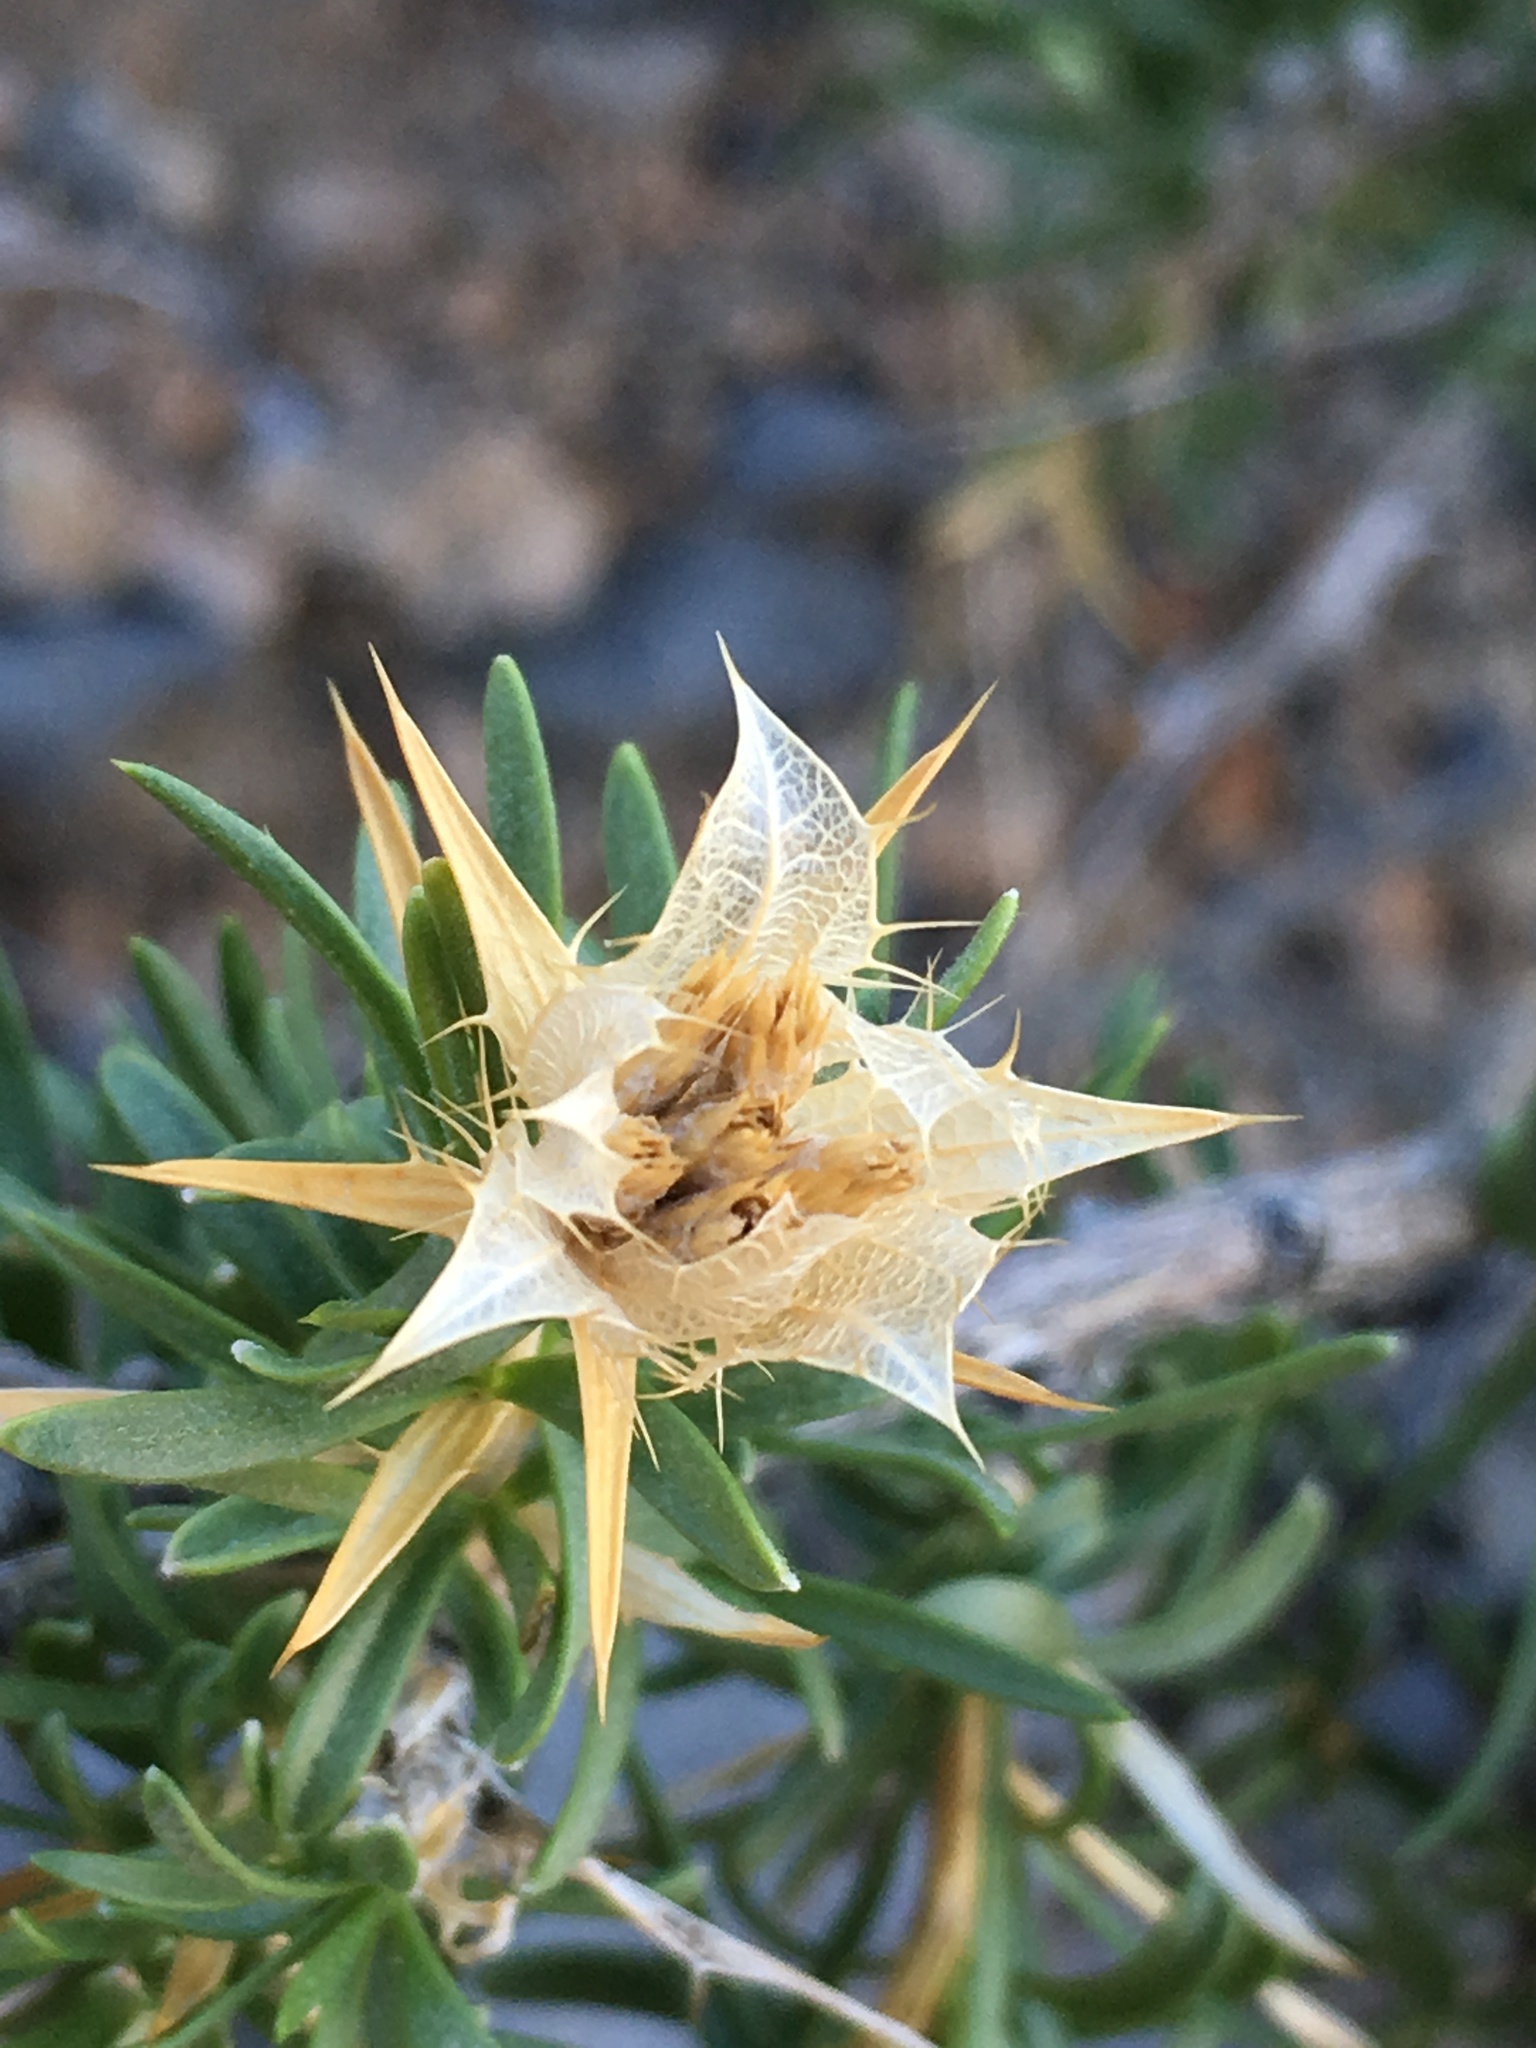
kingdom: Plantae
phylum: Tracheophyta
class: Magnoliopsida
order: Asterales
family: Asteraceae
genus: Hecastocleis
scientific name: Hecastocleis shockleyi
